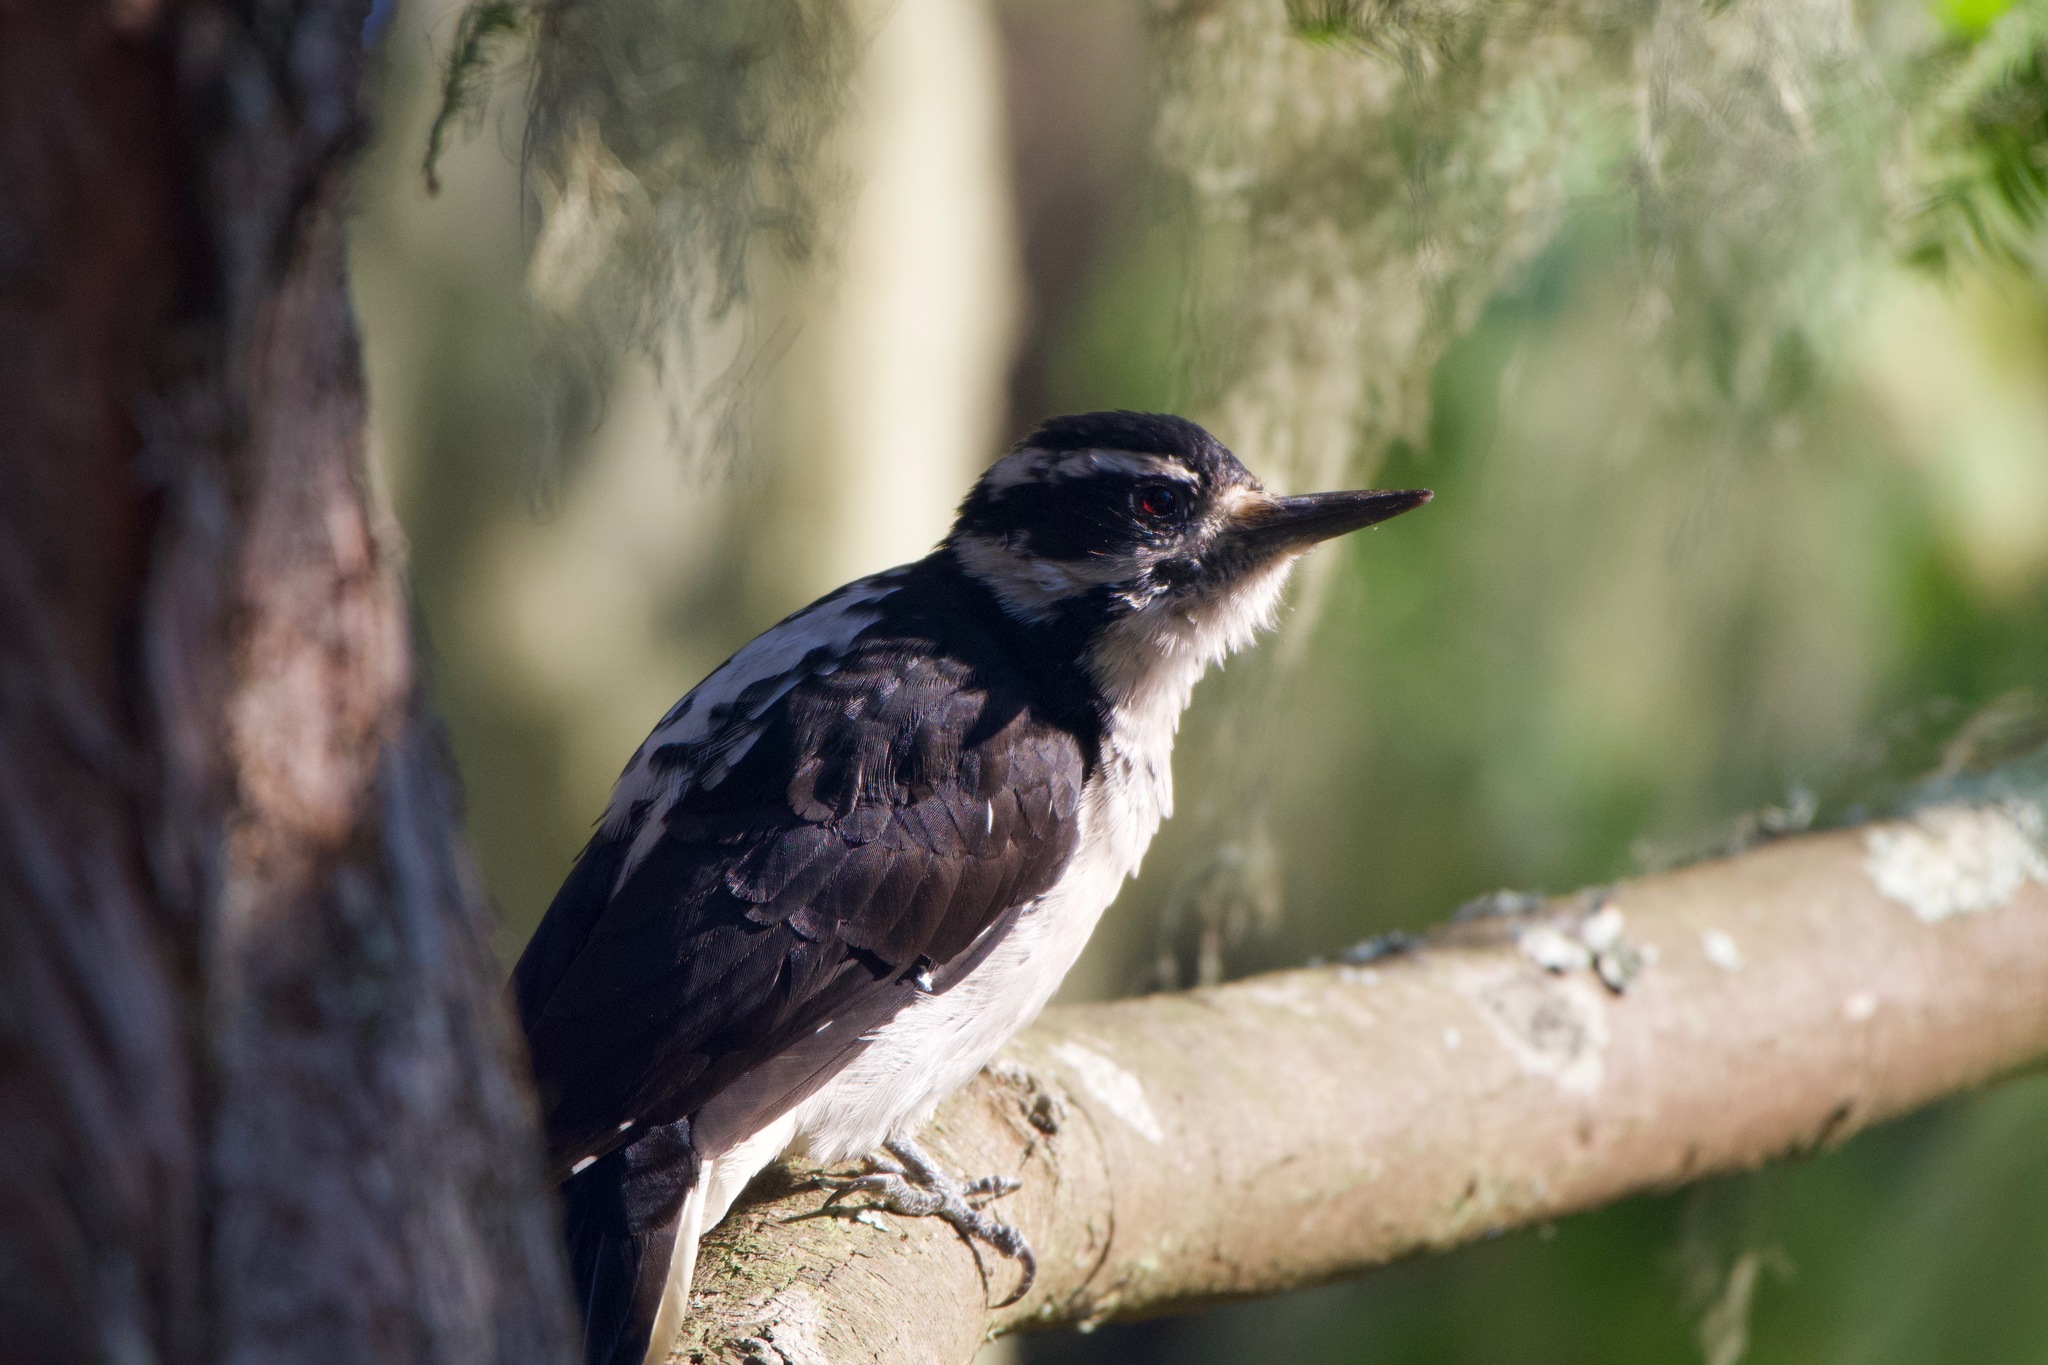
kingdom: Animalia
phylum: Chordata
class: Aves
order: Piciformes
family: Picidae
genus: Leuconotopicus
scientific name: Leuconotopicus villosus
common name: Hairy woodpecker
